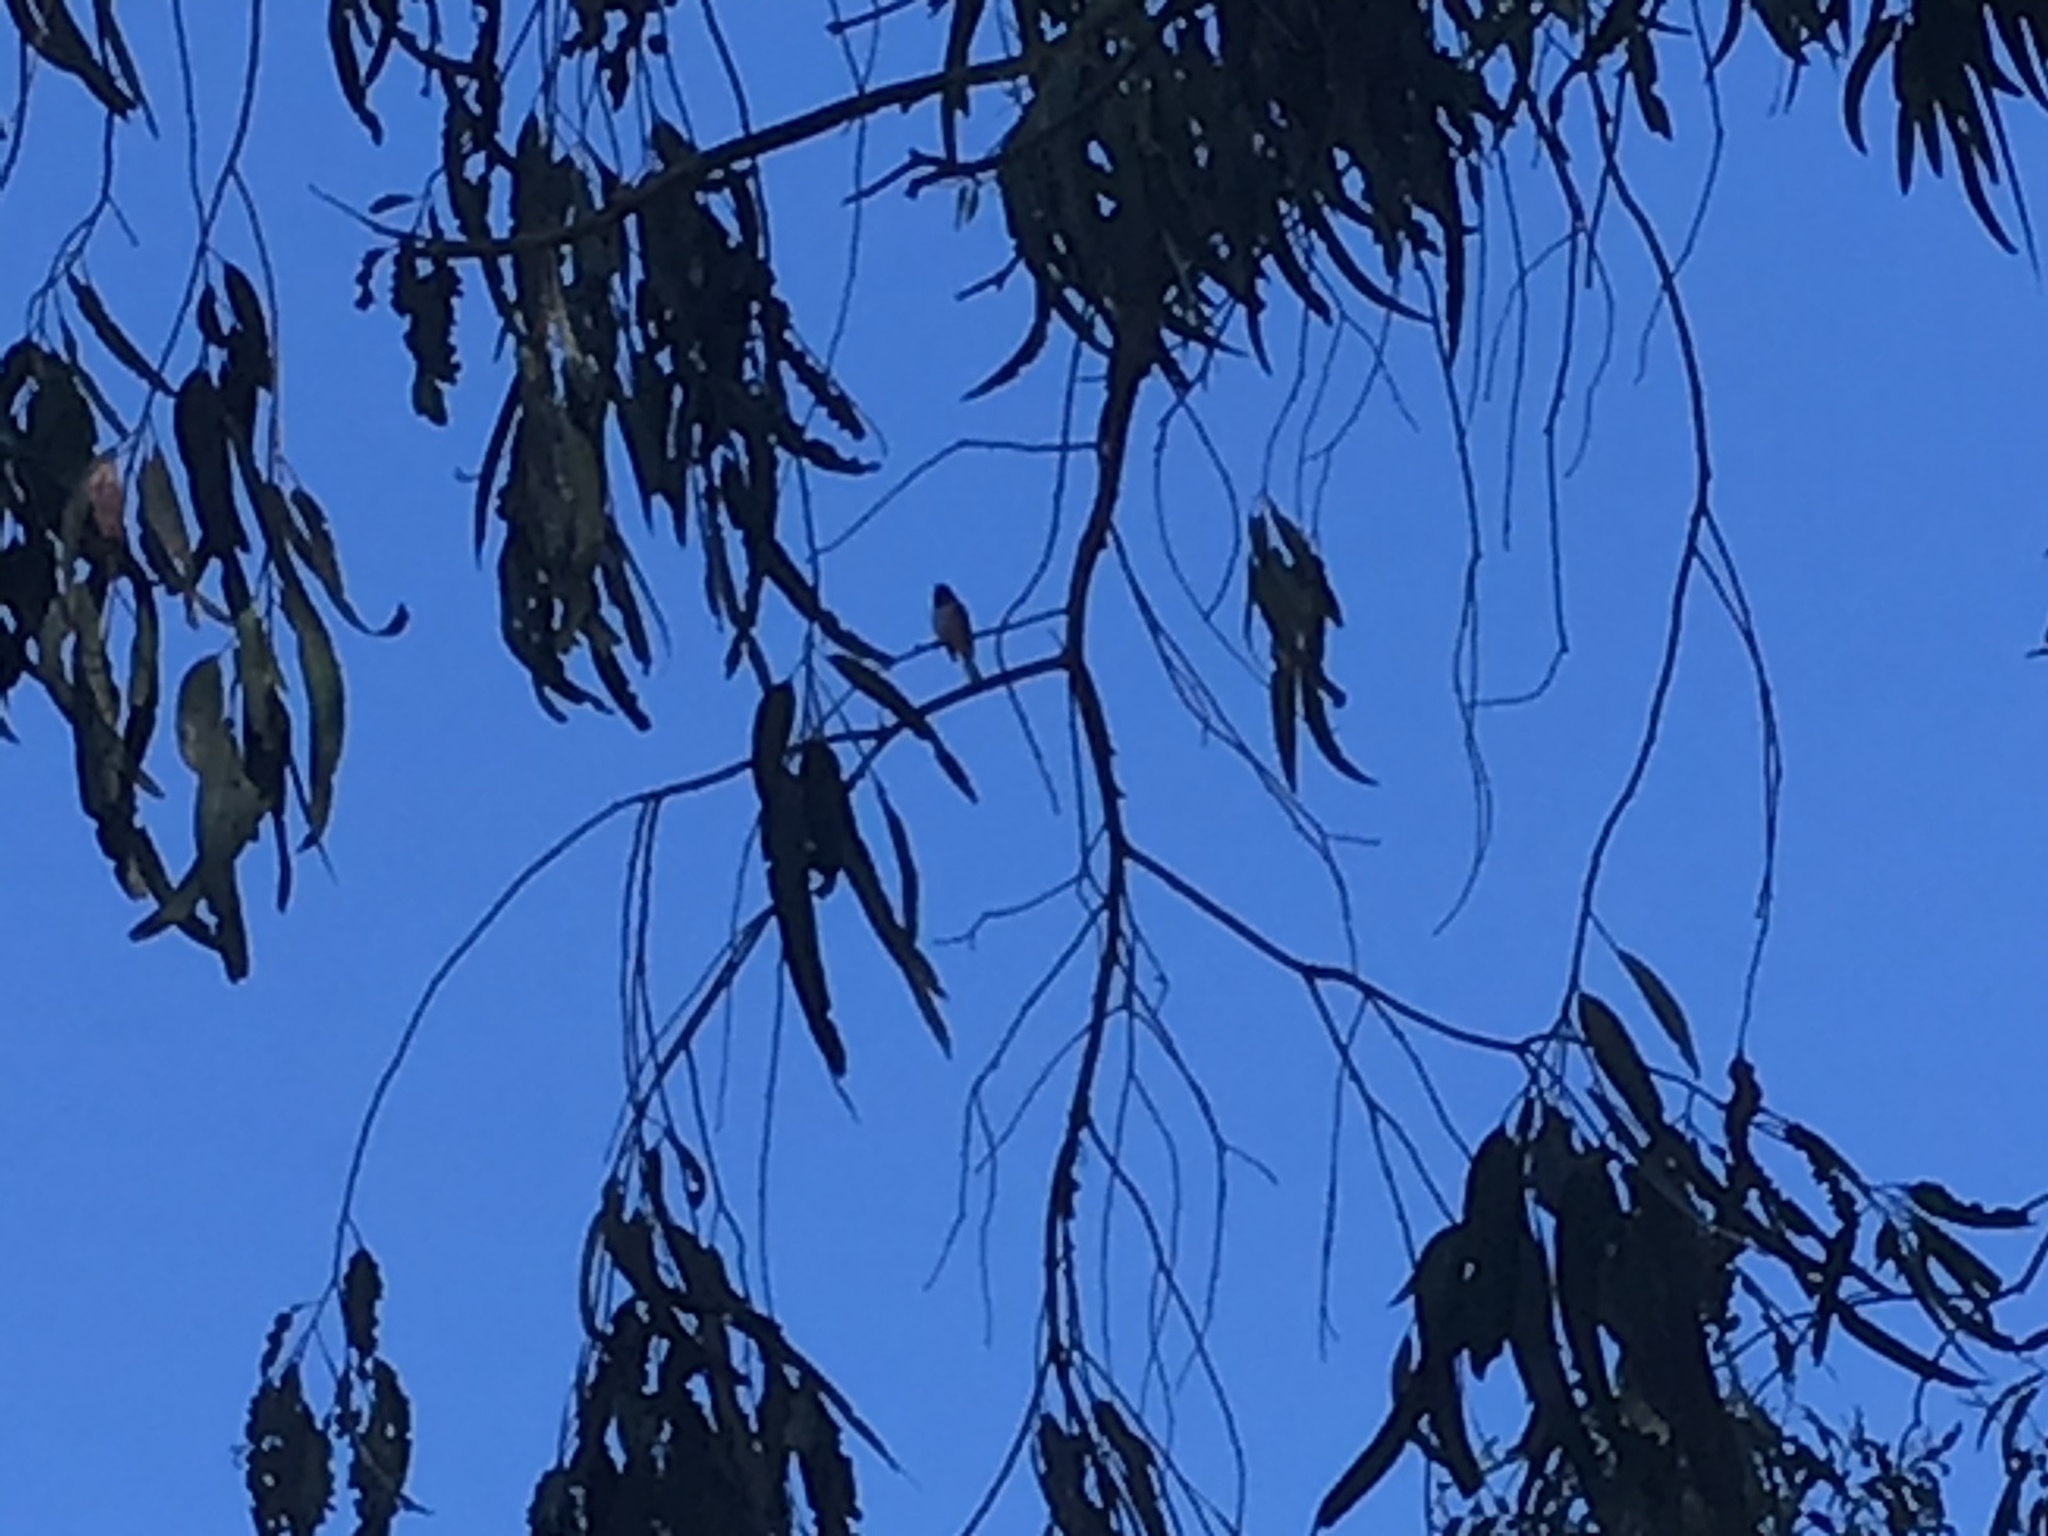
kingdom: Animalia
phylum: Chordata
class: Aves
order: Passeriformes
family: Passerellidae
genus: Junco
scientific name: Junco hyemalis
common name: Dark-eyed junco
